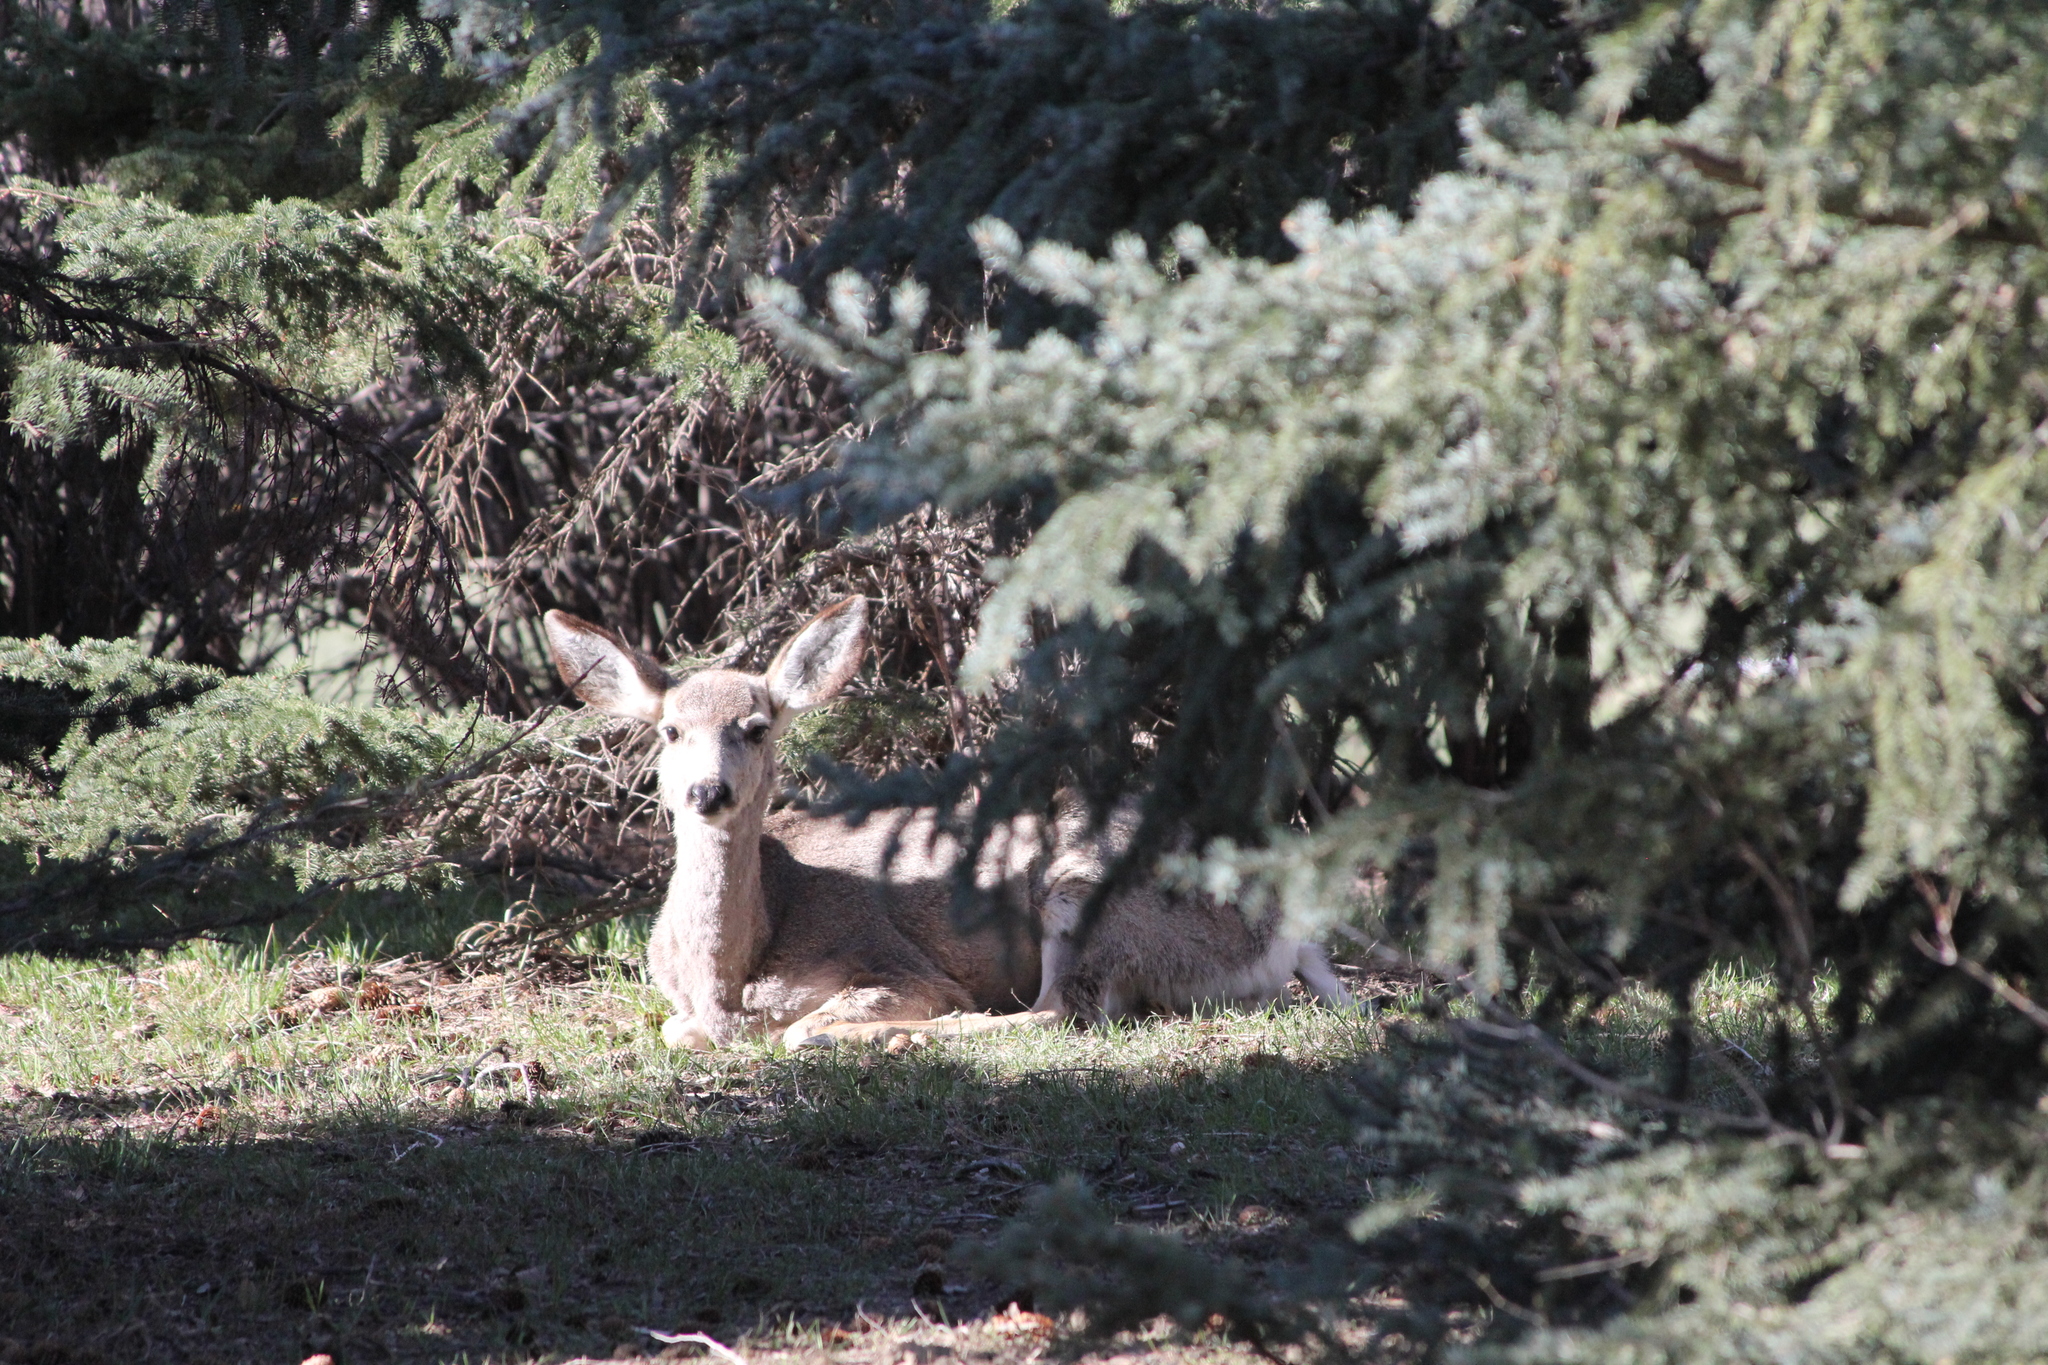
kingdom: Animalia
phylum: Chordata
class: Mammalia
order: Artiodactyla
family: Cervidae
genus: Odocoileus
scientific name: Odocoileus hemionus
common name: Mule deer
